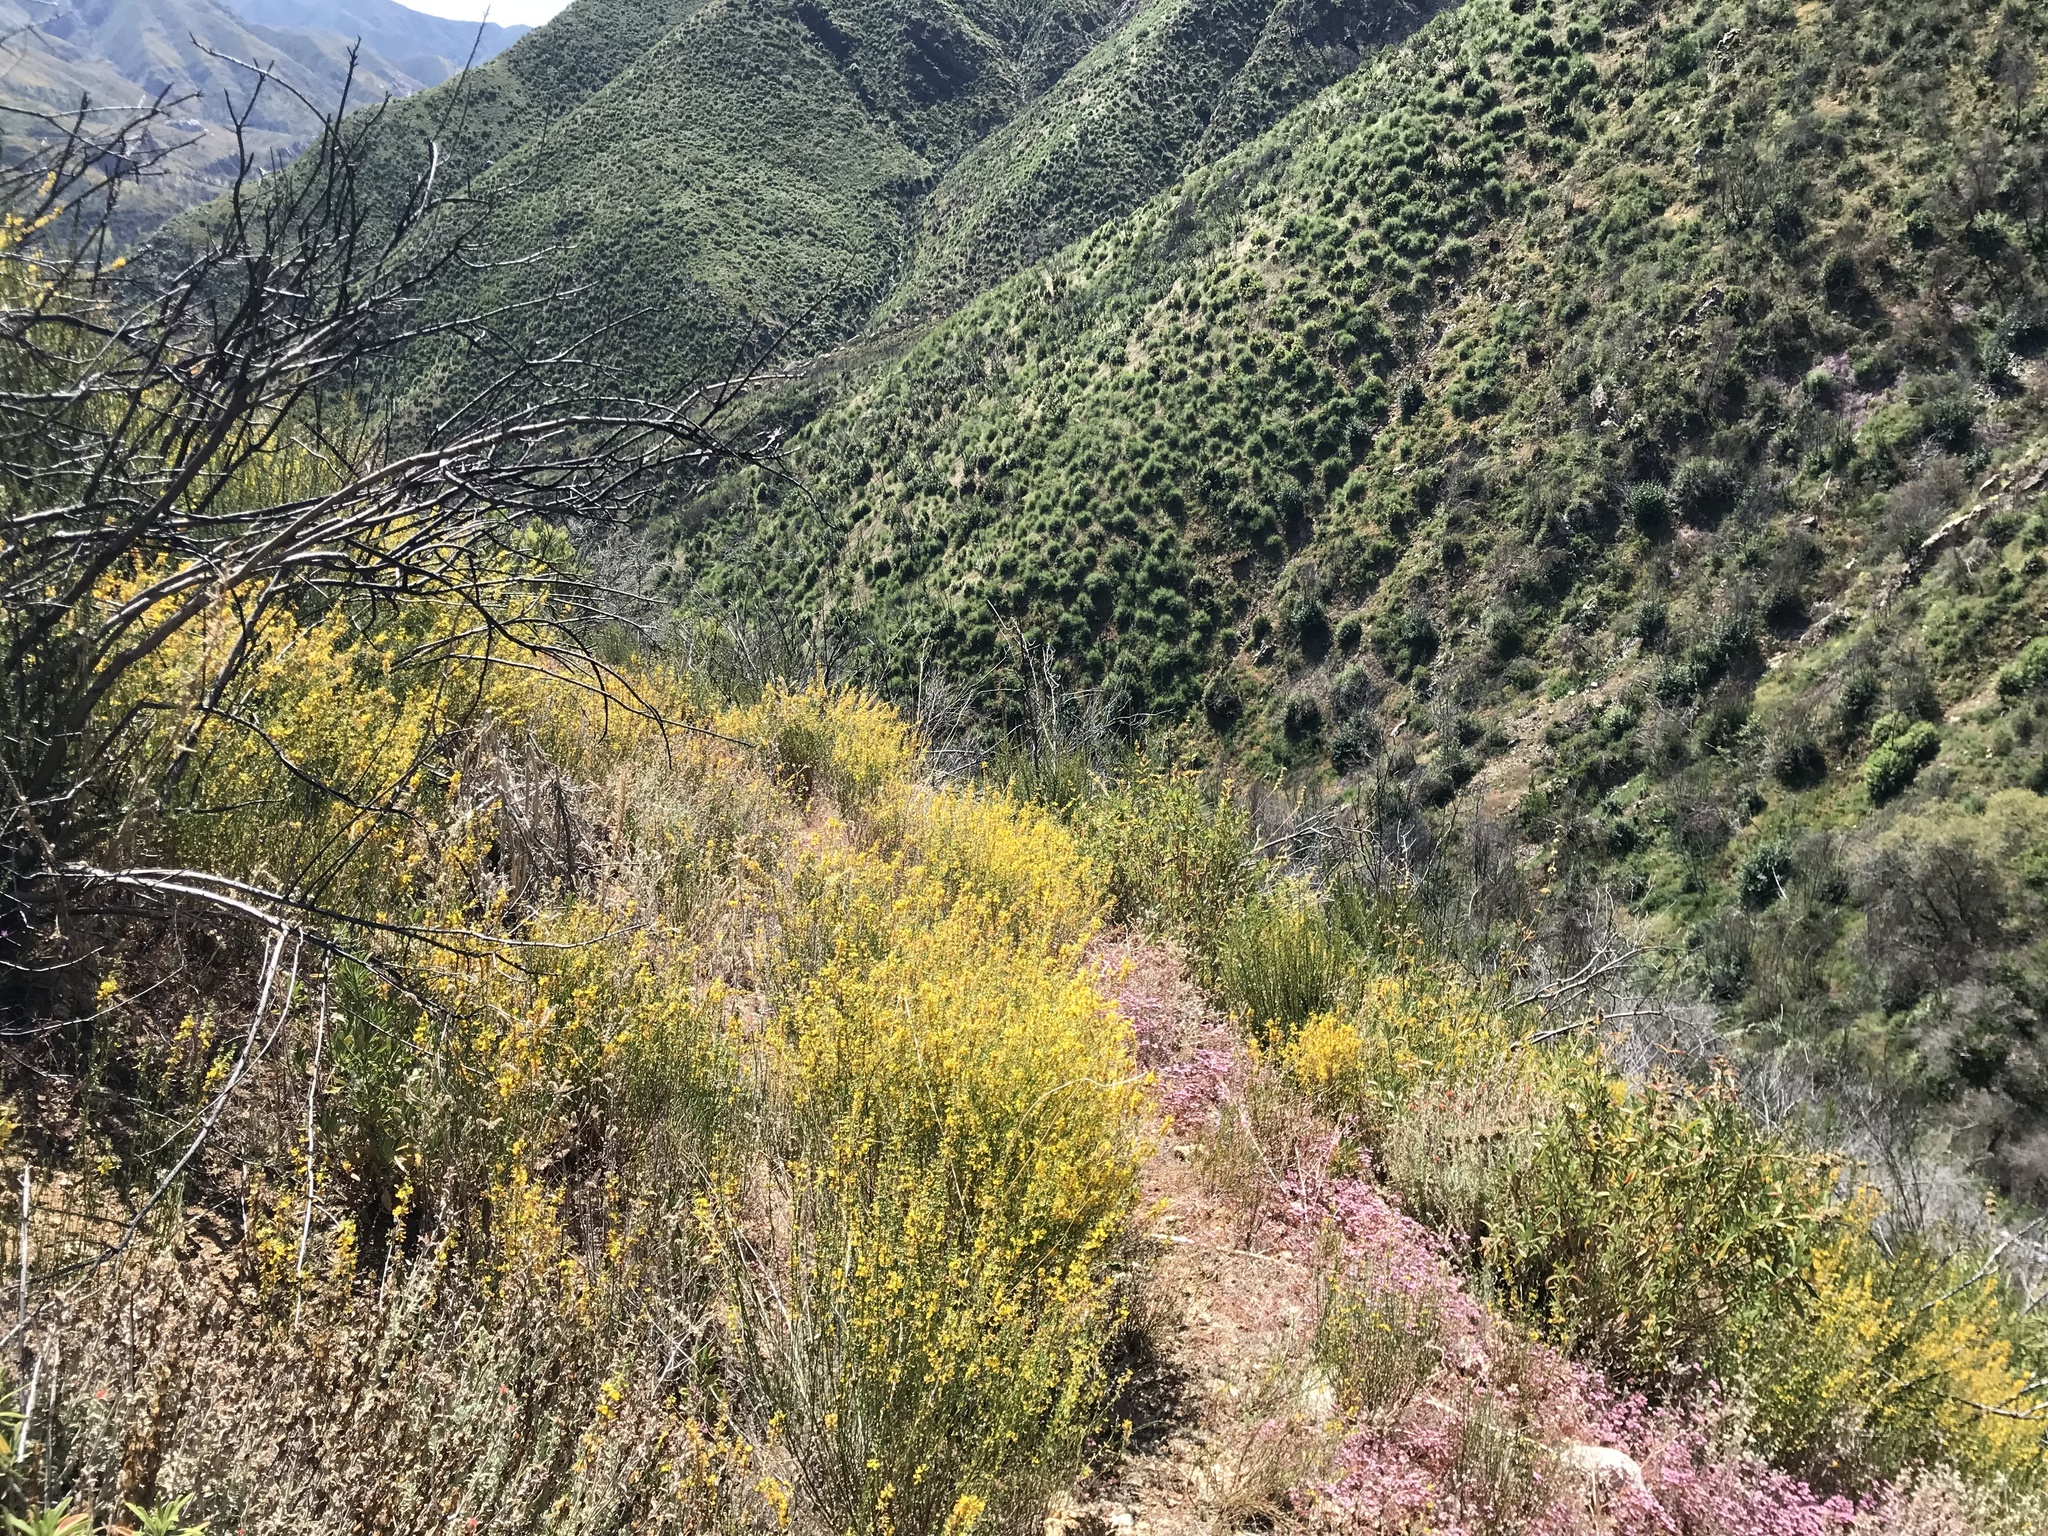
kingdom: Plantae
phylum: Tracheophyta
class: Magnoliopsida
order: Caryophyllales
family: Polygonaceae
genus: Chorizanthe
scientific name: Chorizanthe staticoides
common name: Turkish rugging
